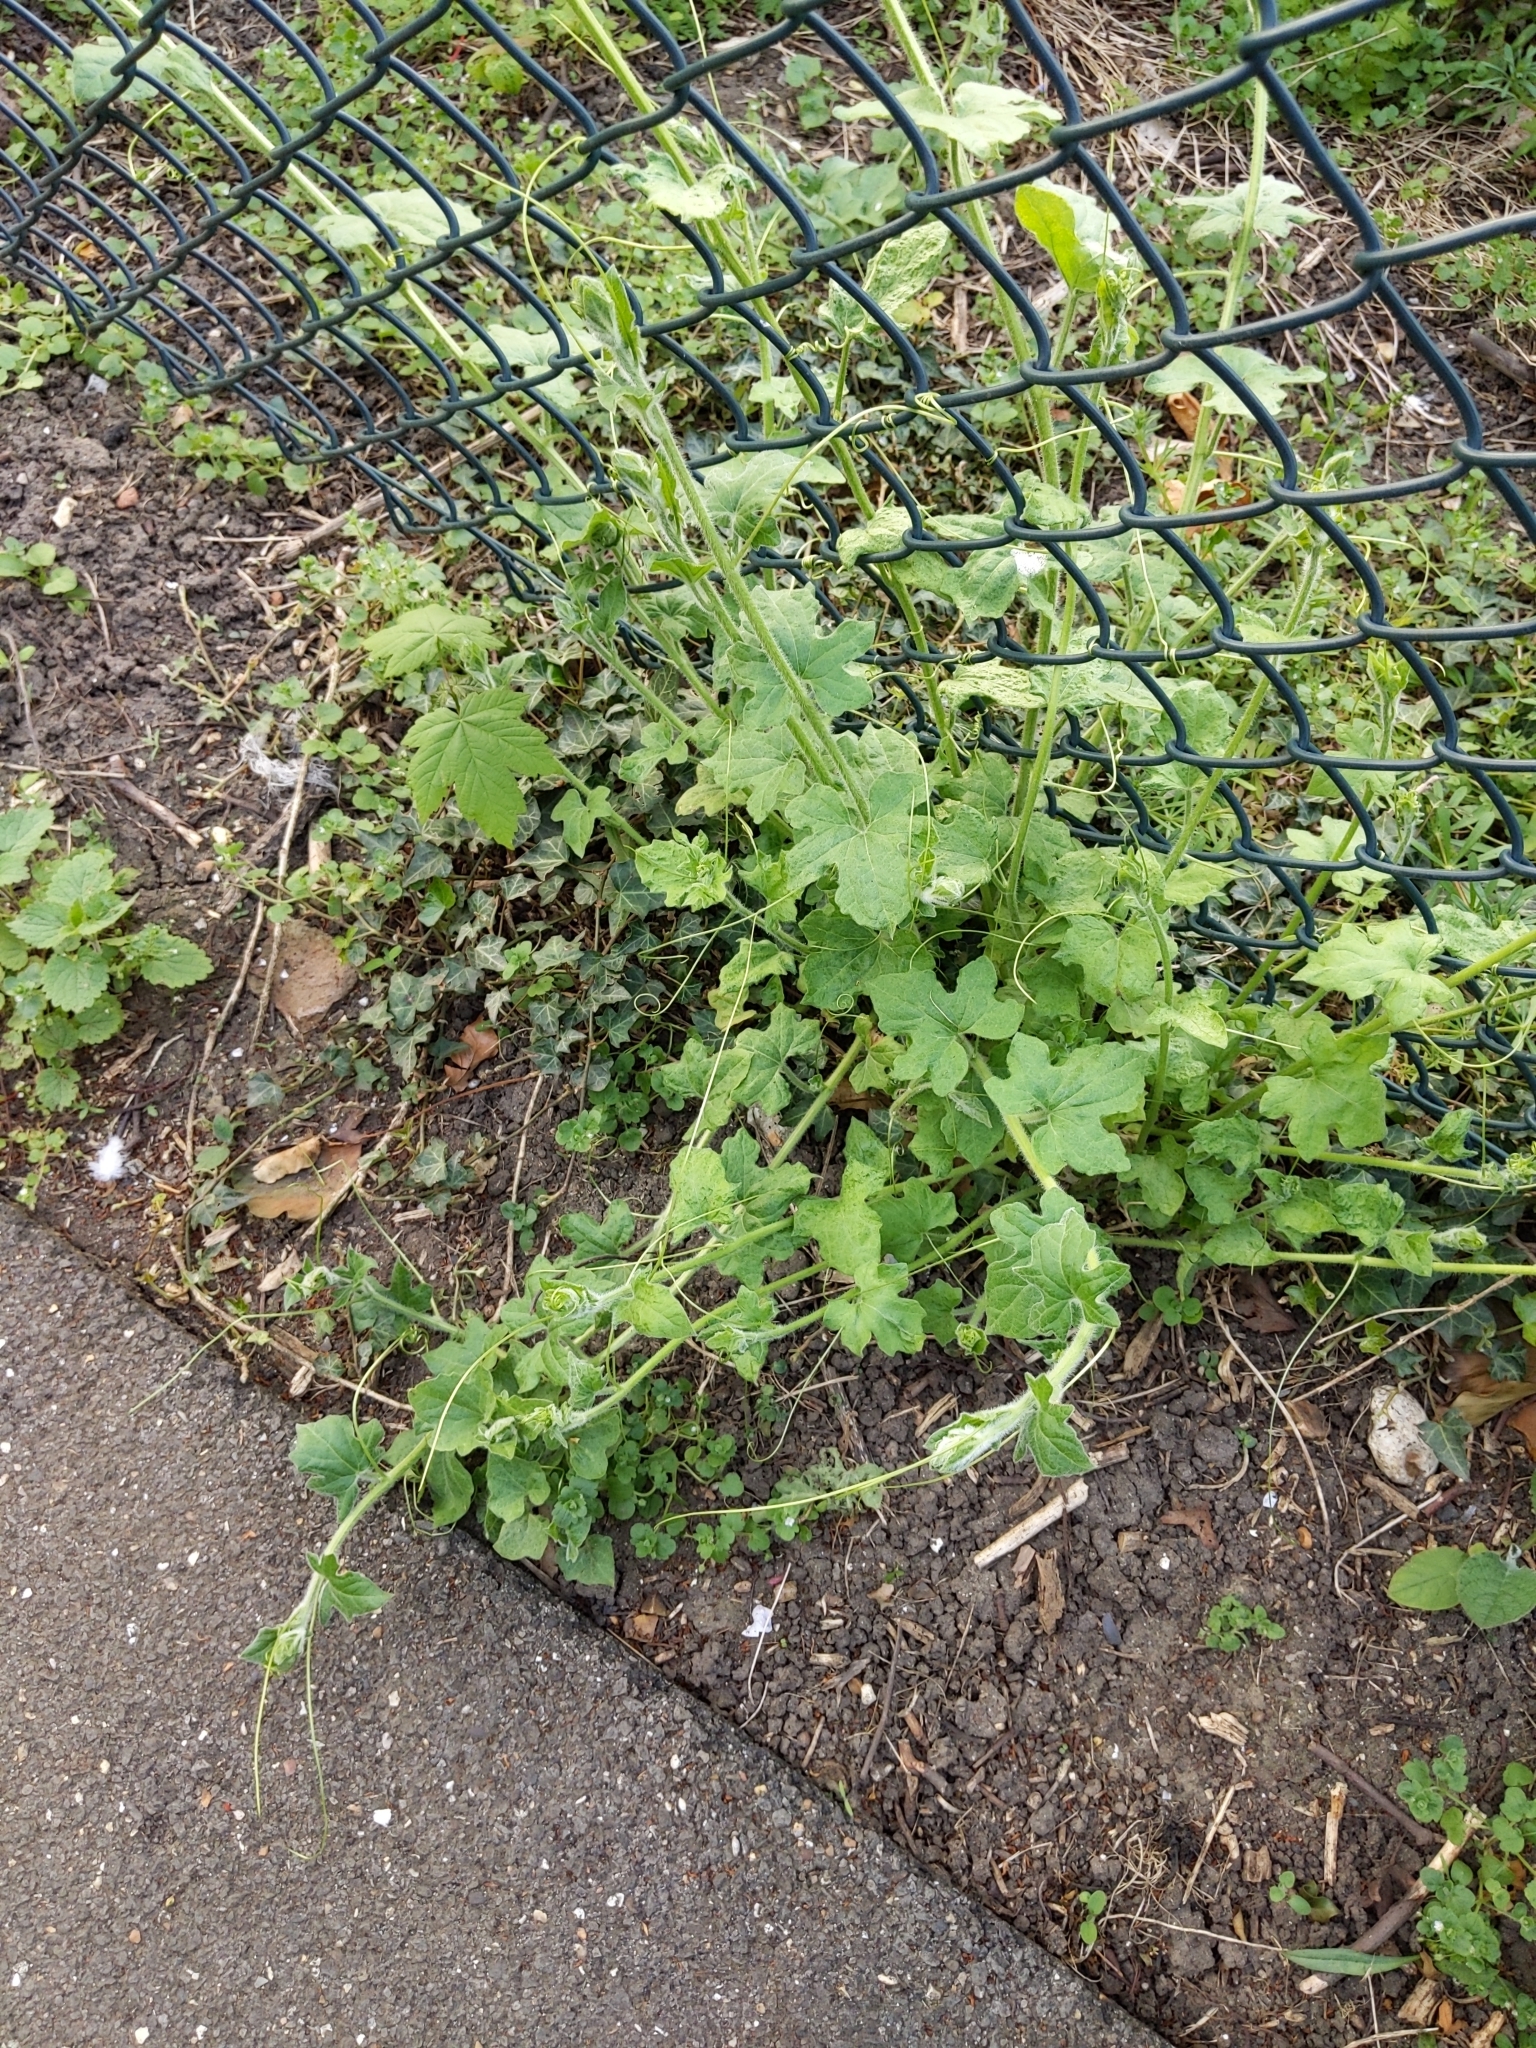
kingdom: Plantae
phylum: Tracheophyta
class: Magnoliopsida
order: Cucurbitales
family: Cucurbitaceae
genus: Bryonia
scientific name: Bryonia cretica
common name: Cretan bryony
